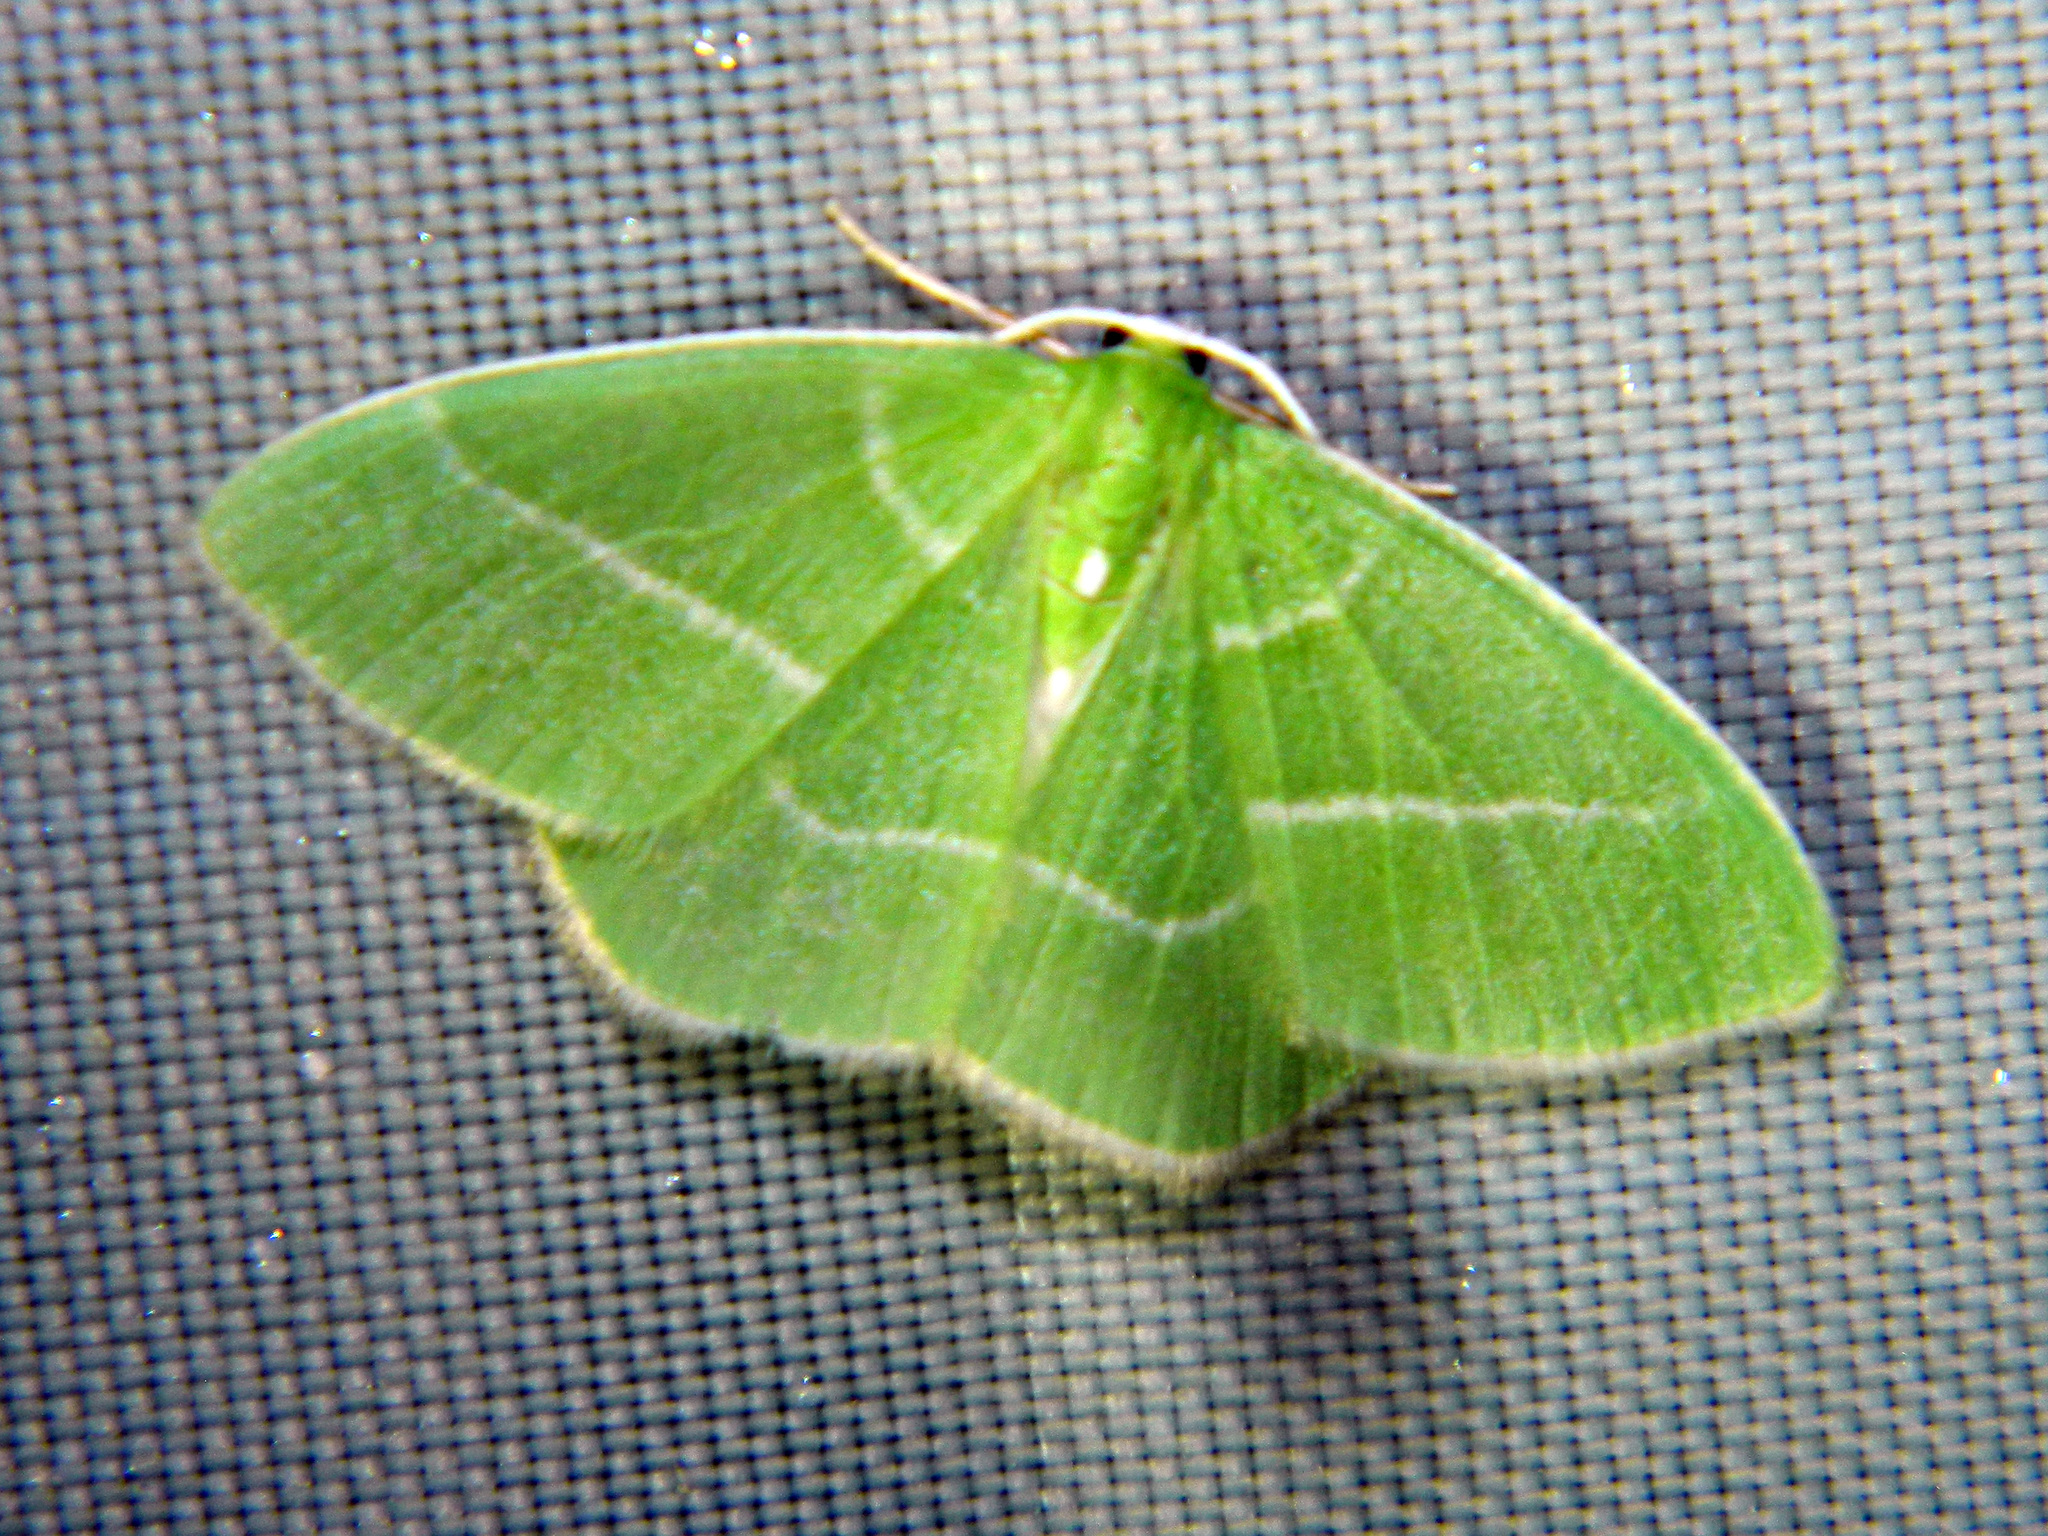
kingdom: Animalia
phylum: Arthropoda
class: Insecta
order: Lepidoptera
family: Geometridae
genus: Nemoria
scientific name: Nemoria mimosaria
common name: White-fringed emerald
